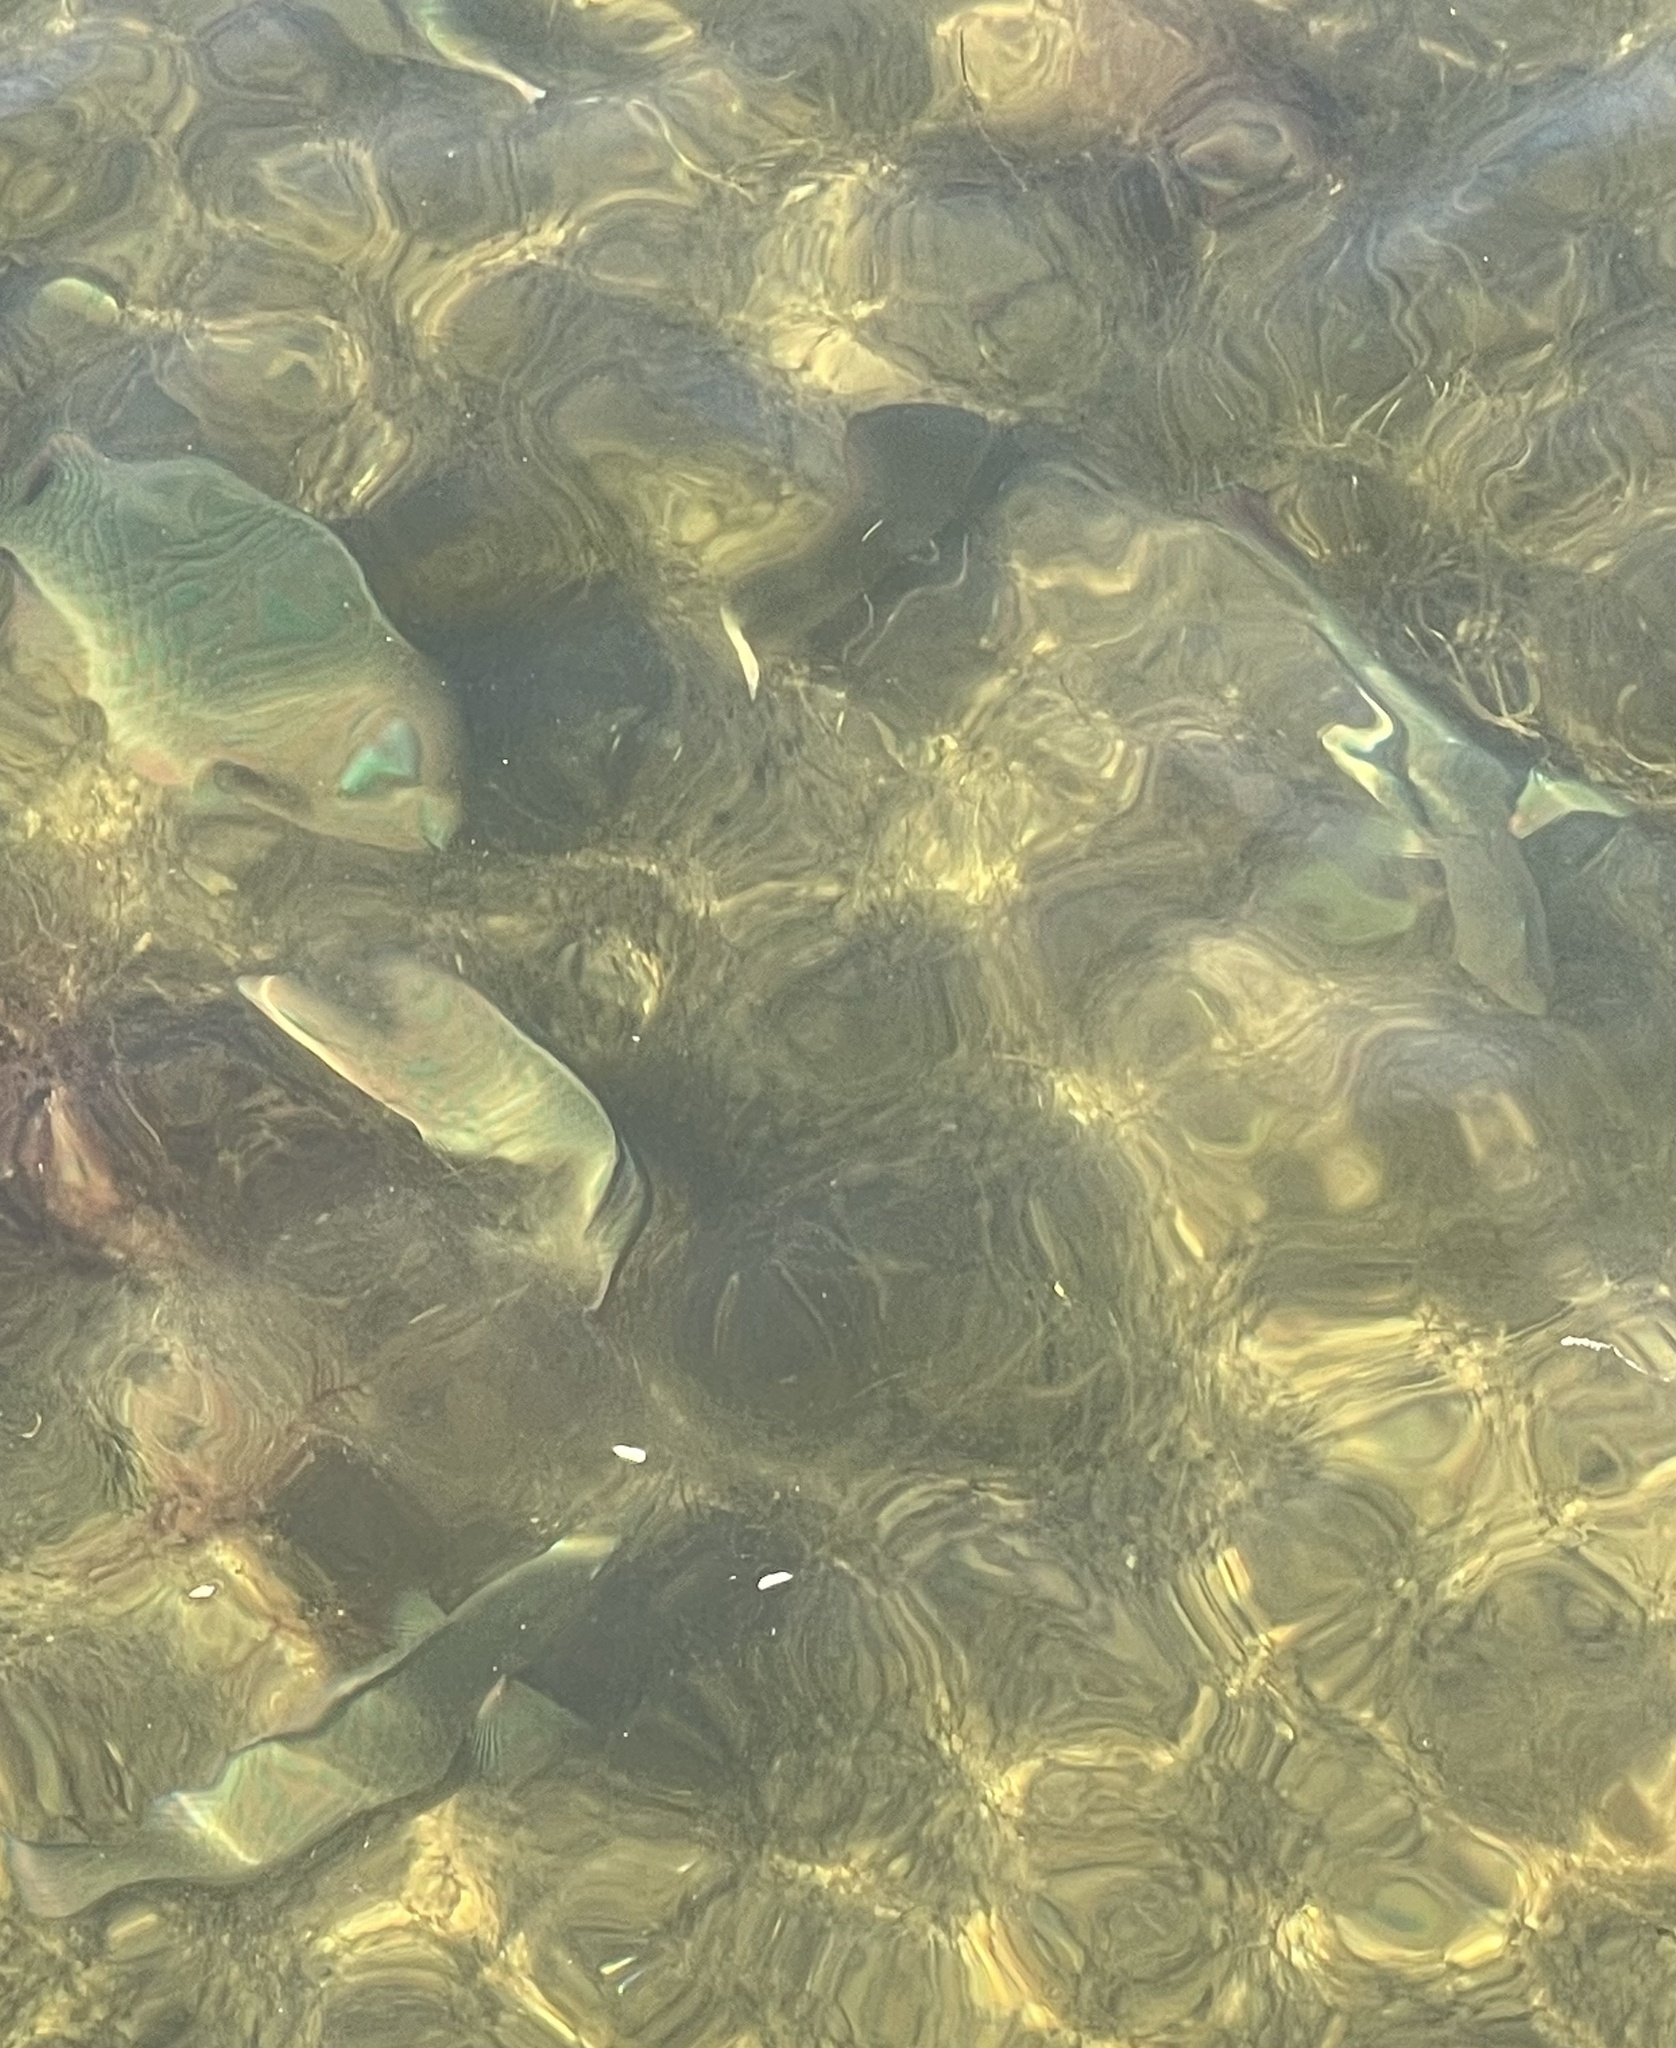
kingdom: Animalia
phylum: Chordata
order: Perciformes
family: Scaridae
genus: Scarus
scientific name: Scarus guacamaia
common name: Rainbow parrotfish
